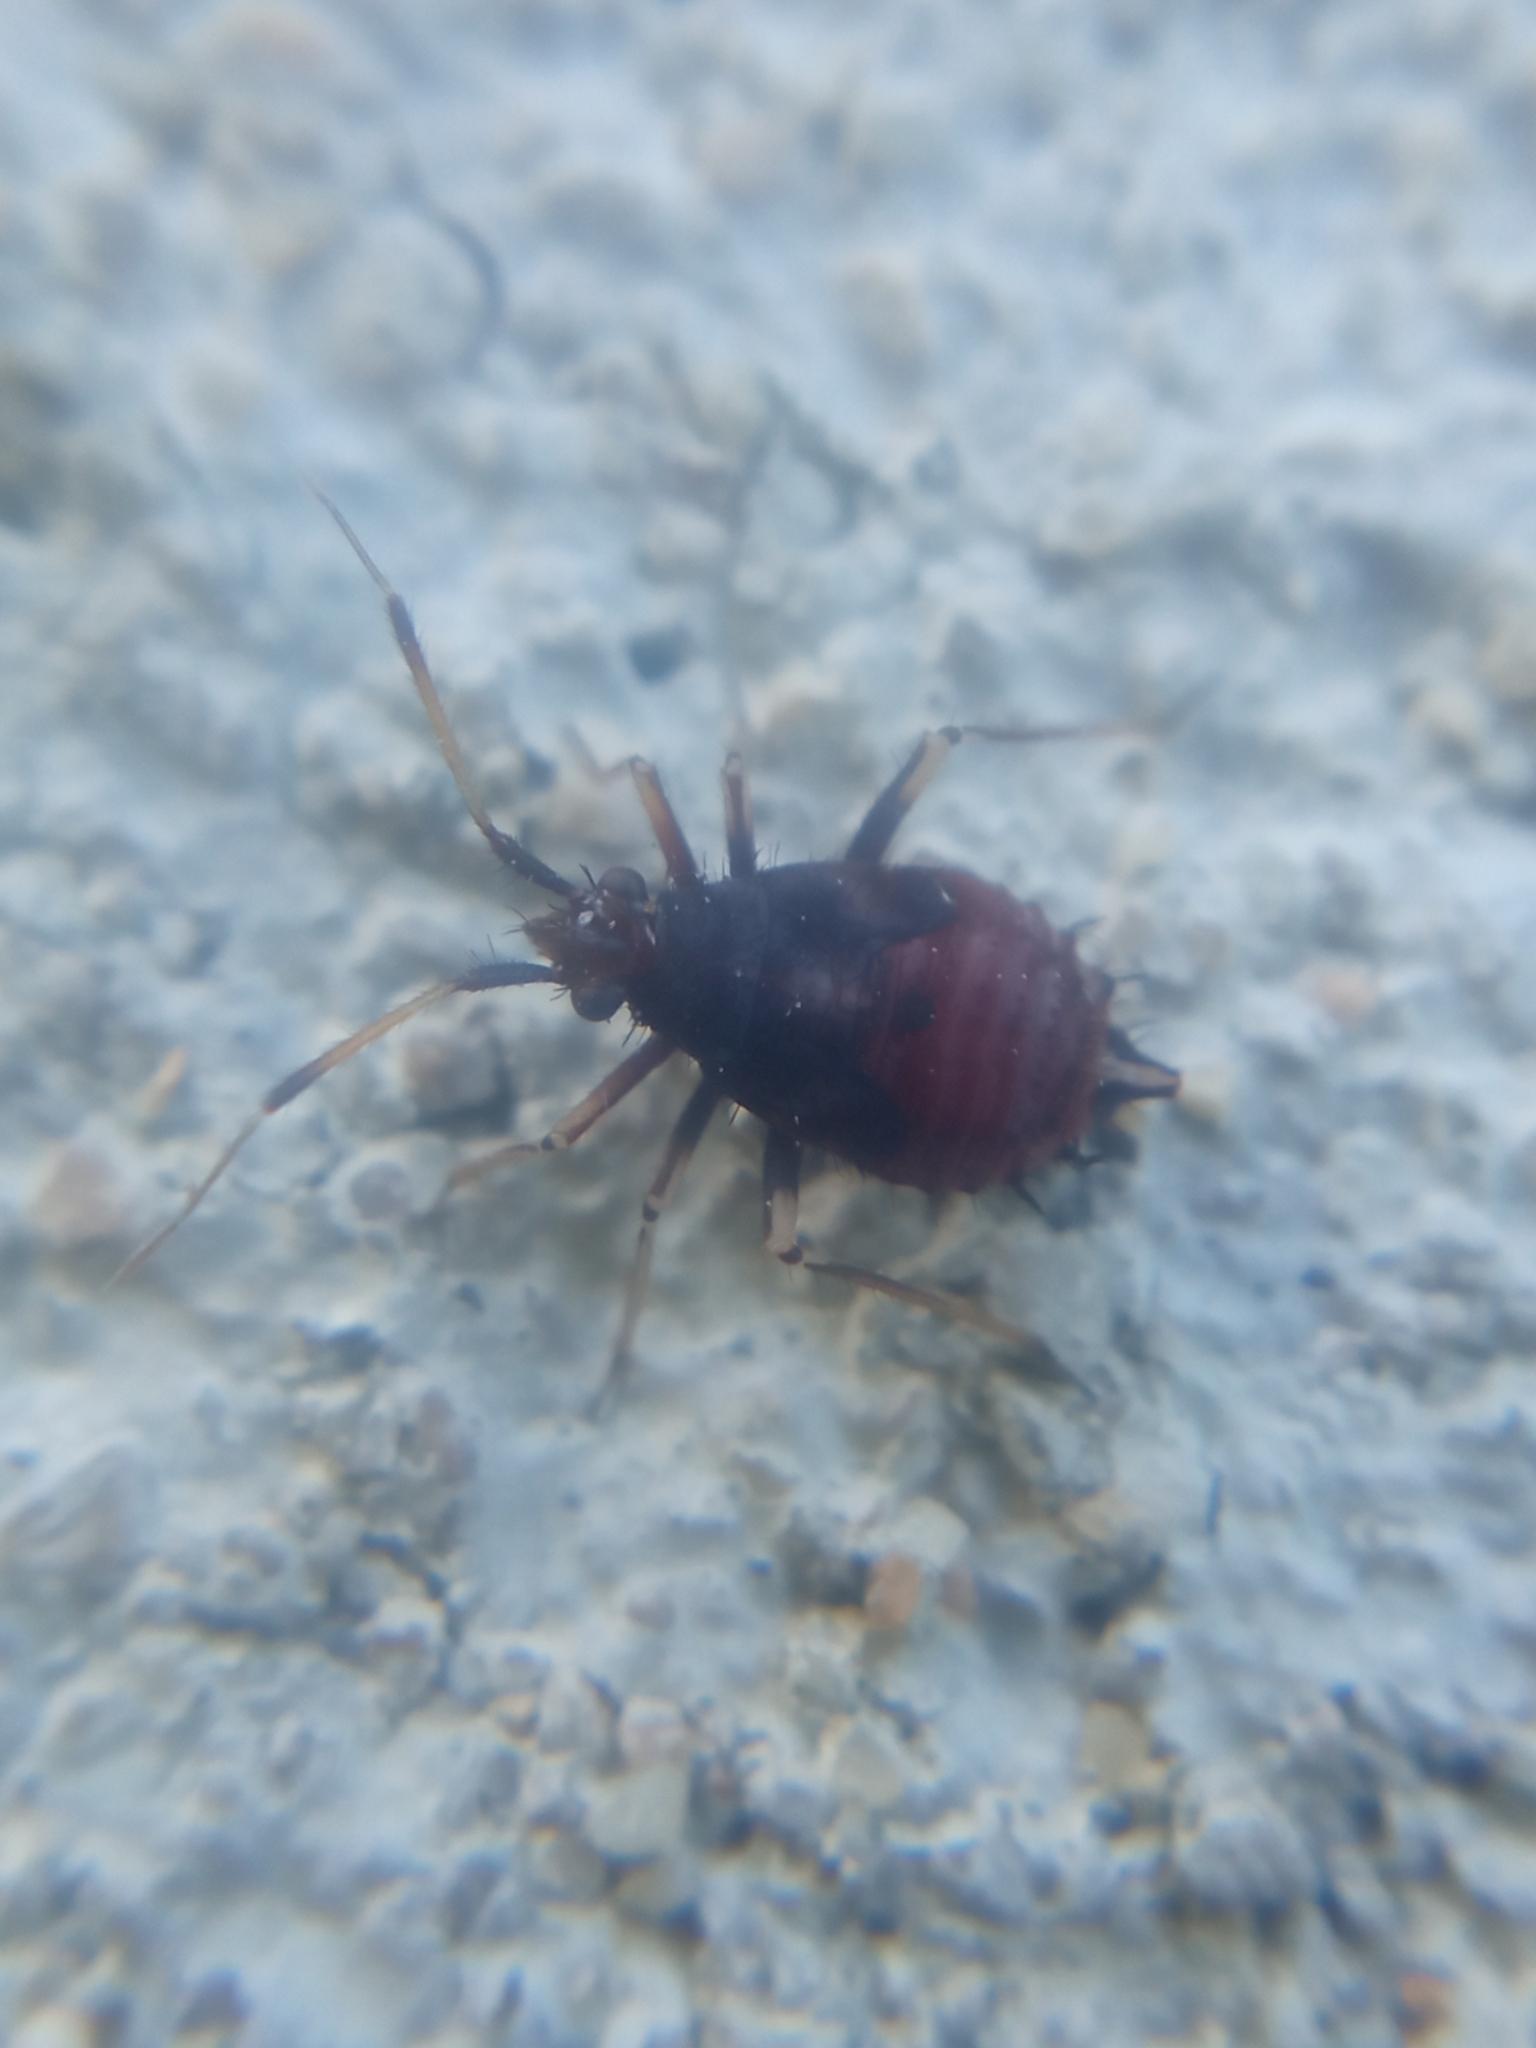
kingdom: Animalia
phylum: Arthropoda
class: Insecta
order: Hemiptera
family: Miridae
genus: Deraeocoris
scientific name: Deraeocoris ruber
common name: Plant bug
